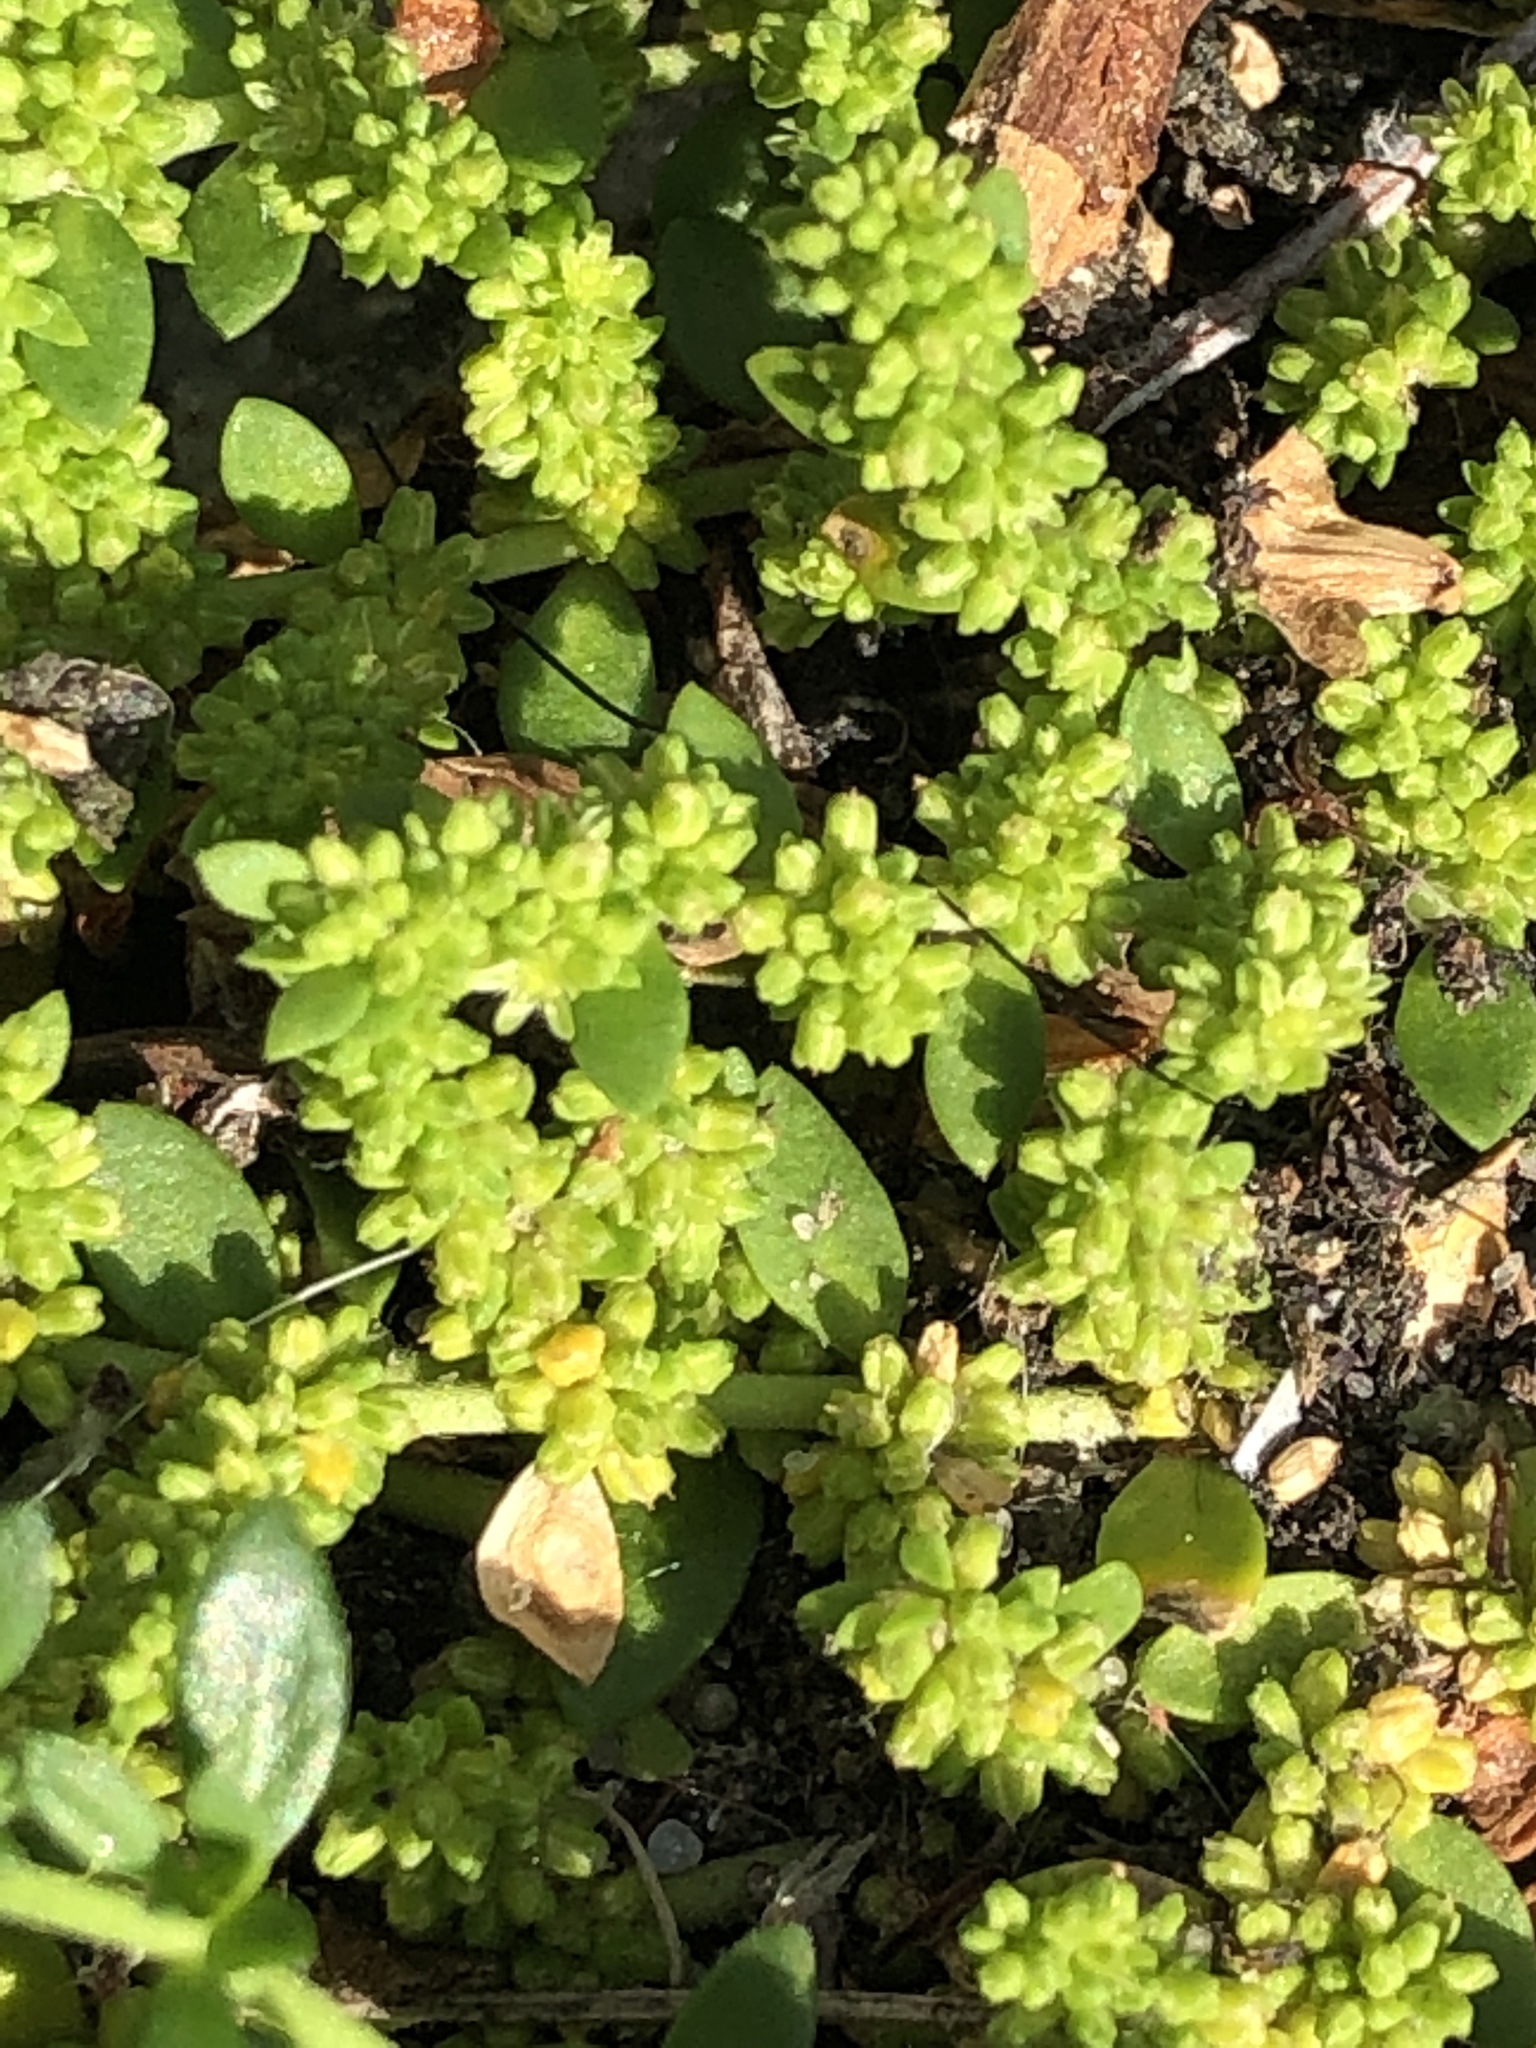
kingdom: Plantae
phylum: Tracheophyta
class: Magnoliopsida
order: Caryophyllales
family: Caryophyllaceae
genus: Herniaria
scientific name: Herniaria glabra
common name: Smooth rupturewort
